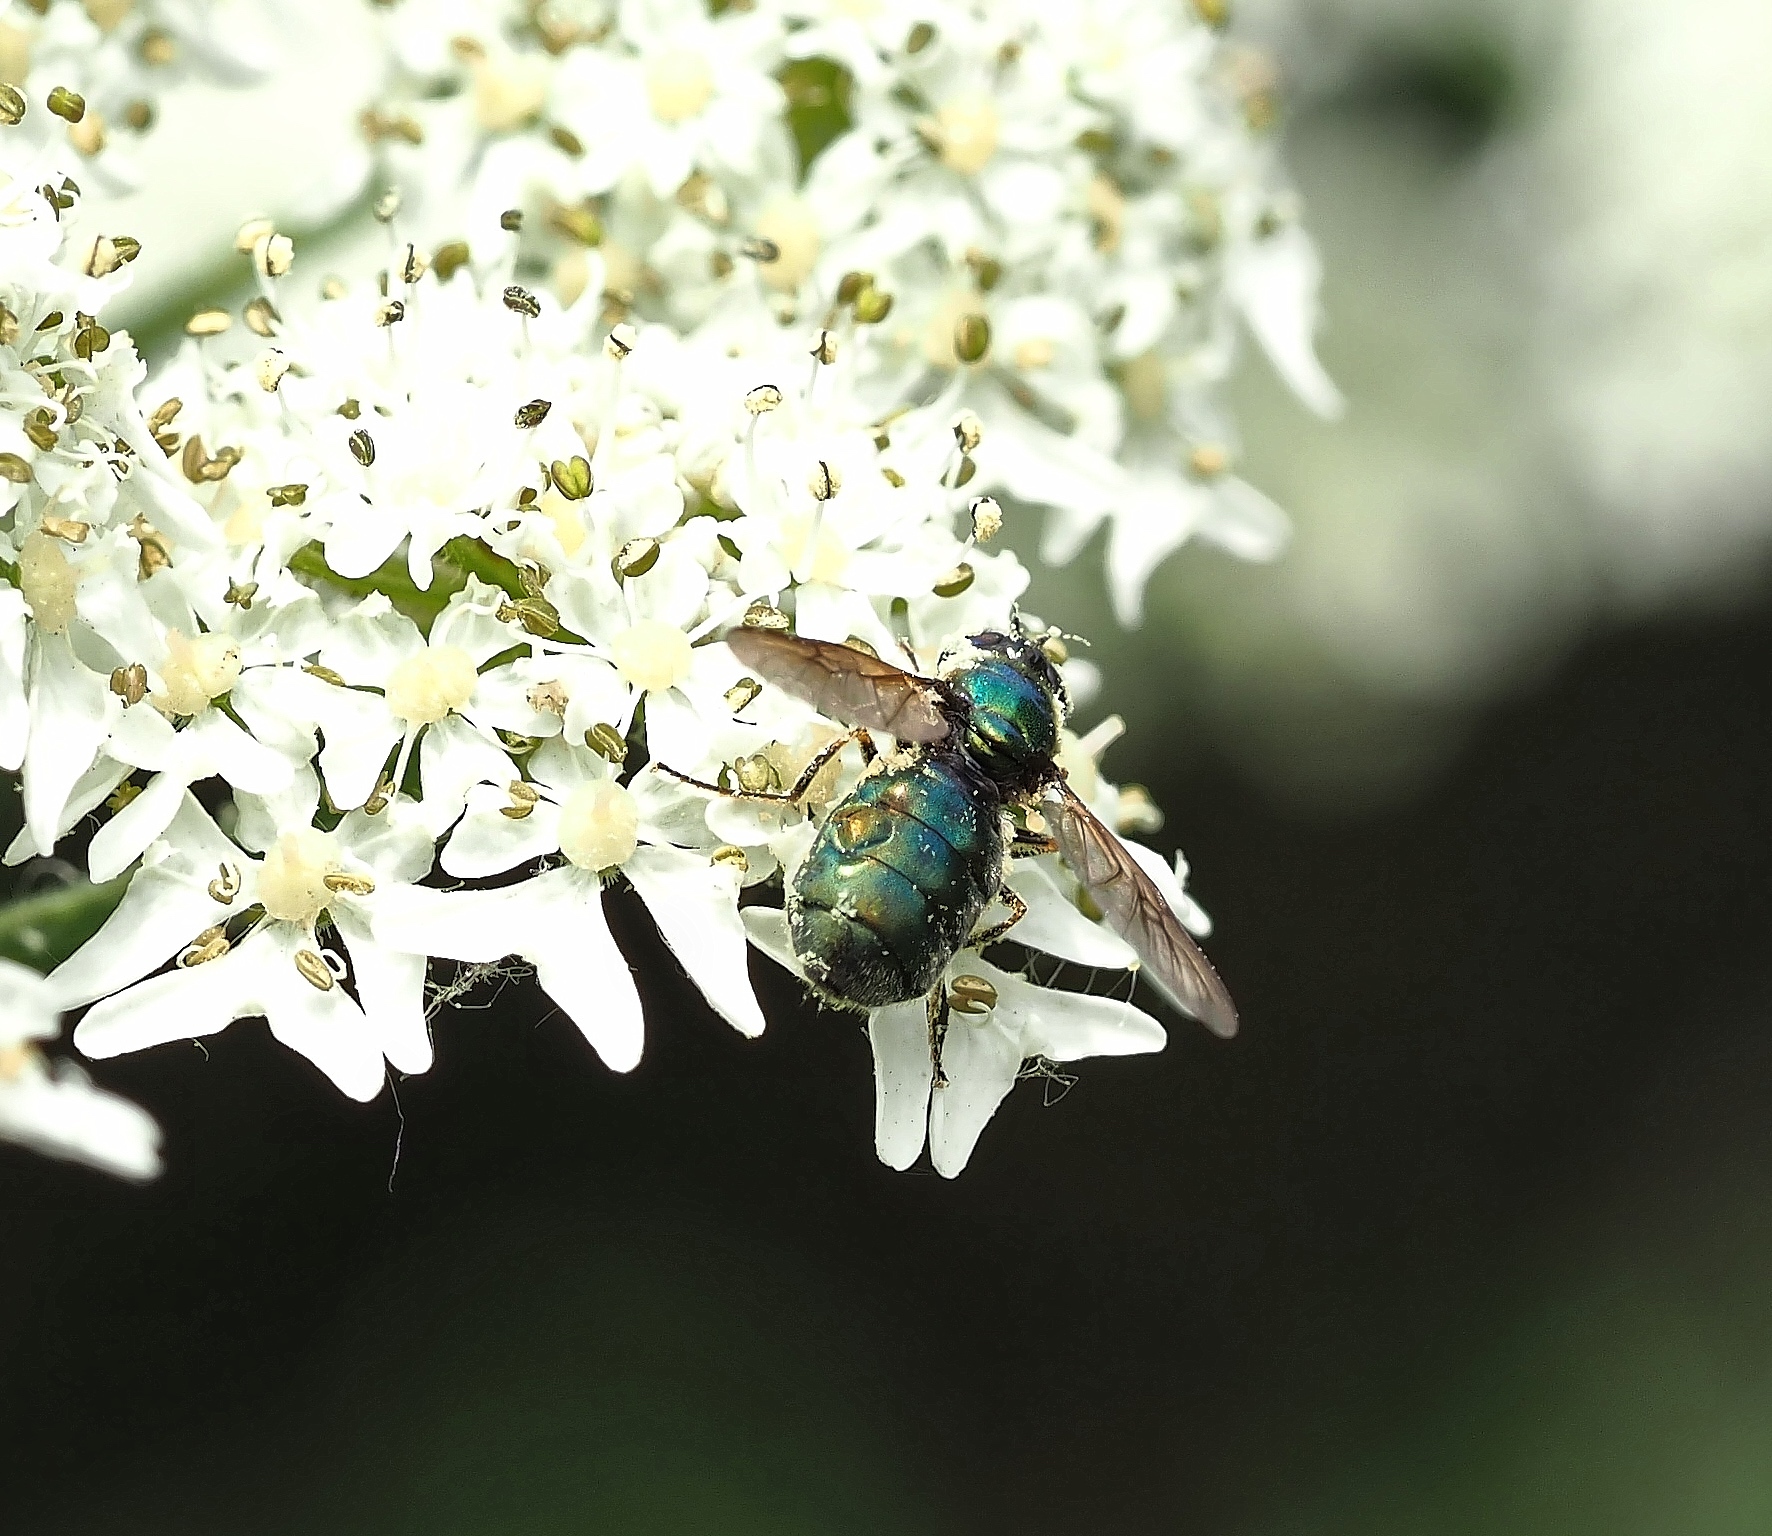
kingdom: Animalia
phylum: Arthropoda
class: Insecta
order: Diptera
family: Stratiomyidae
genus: Chloromyia
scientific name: Chloromyia formosa
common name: Soldier fly
